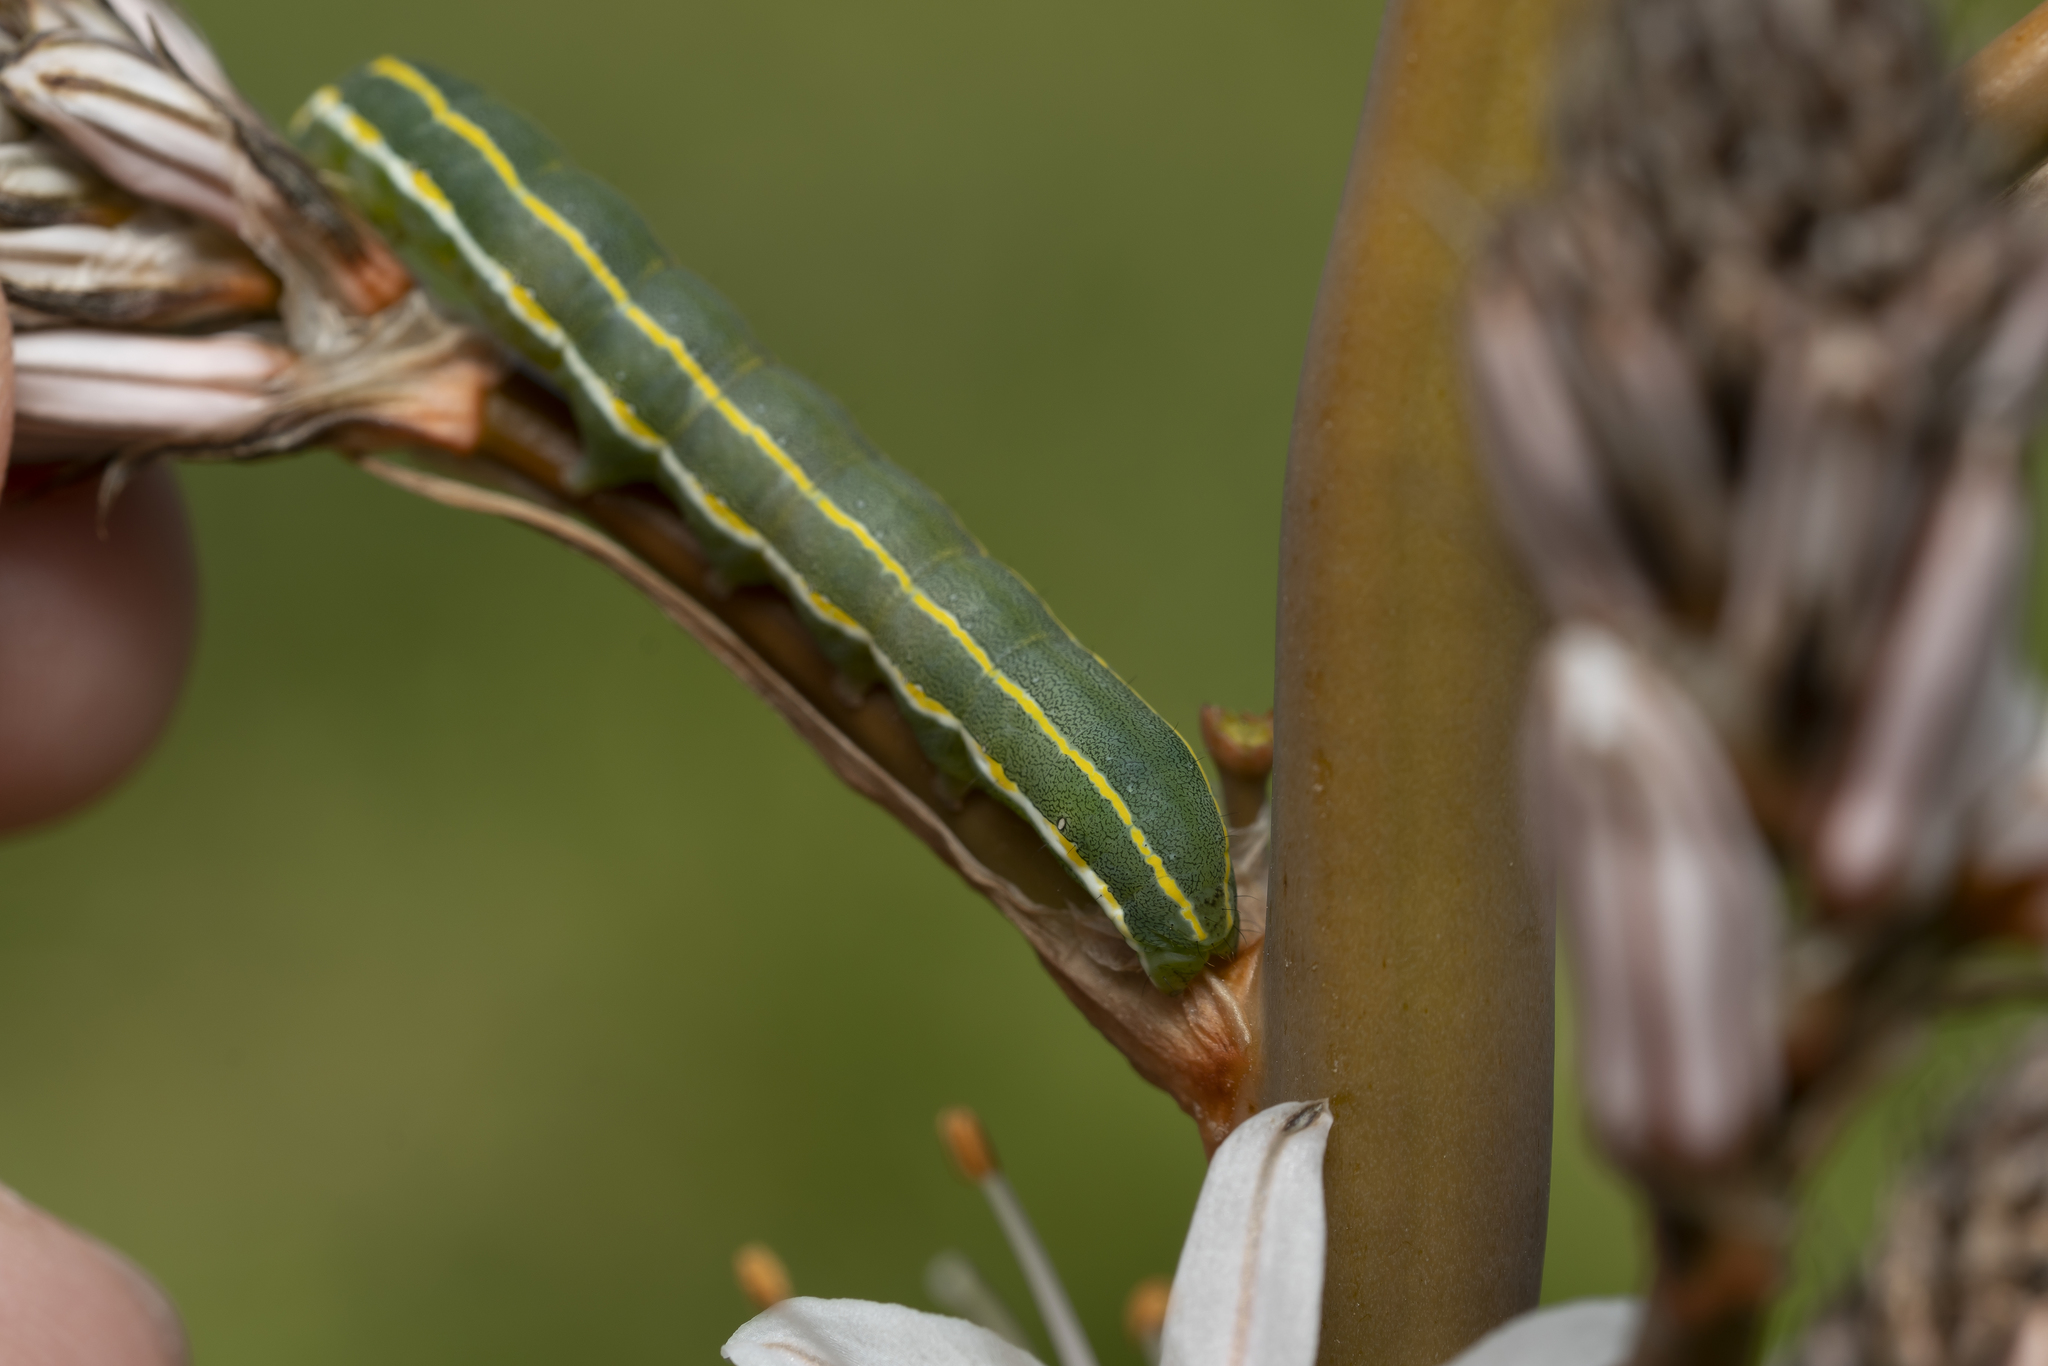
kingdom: Animalia
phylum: Arthropoda
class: Insecta
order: Lepidoptera
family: Noctuidae
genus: Xylena
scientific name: Xylena exsoleta
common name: Sword-grass
